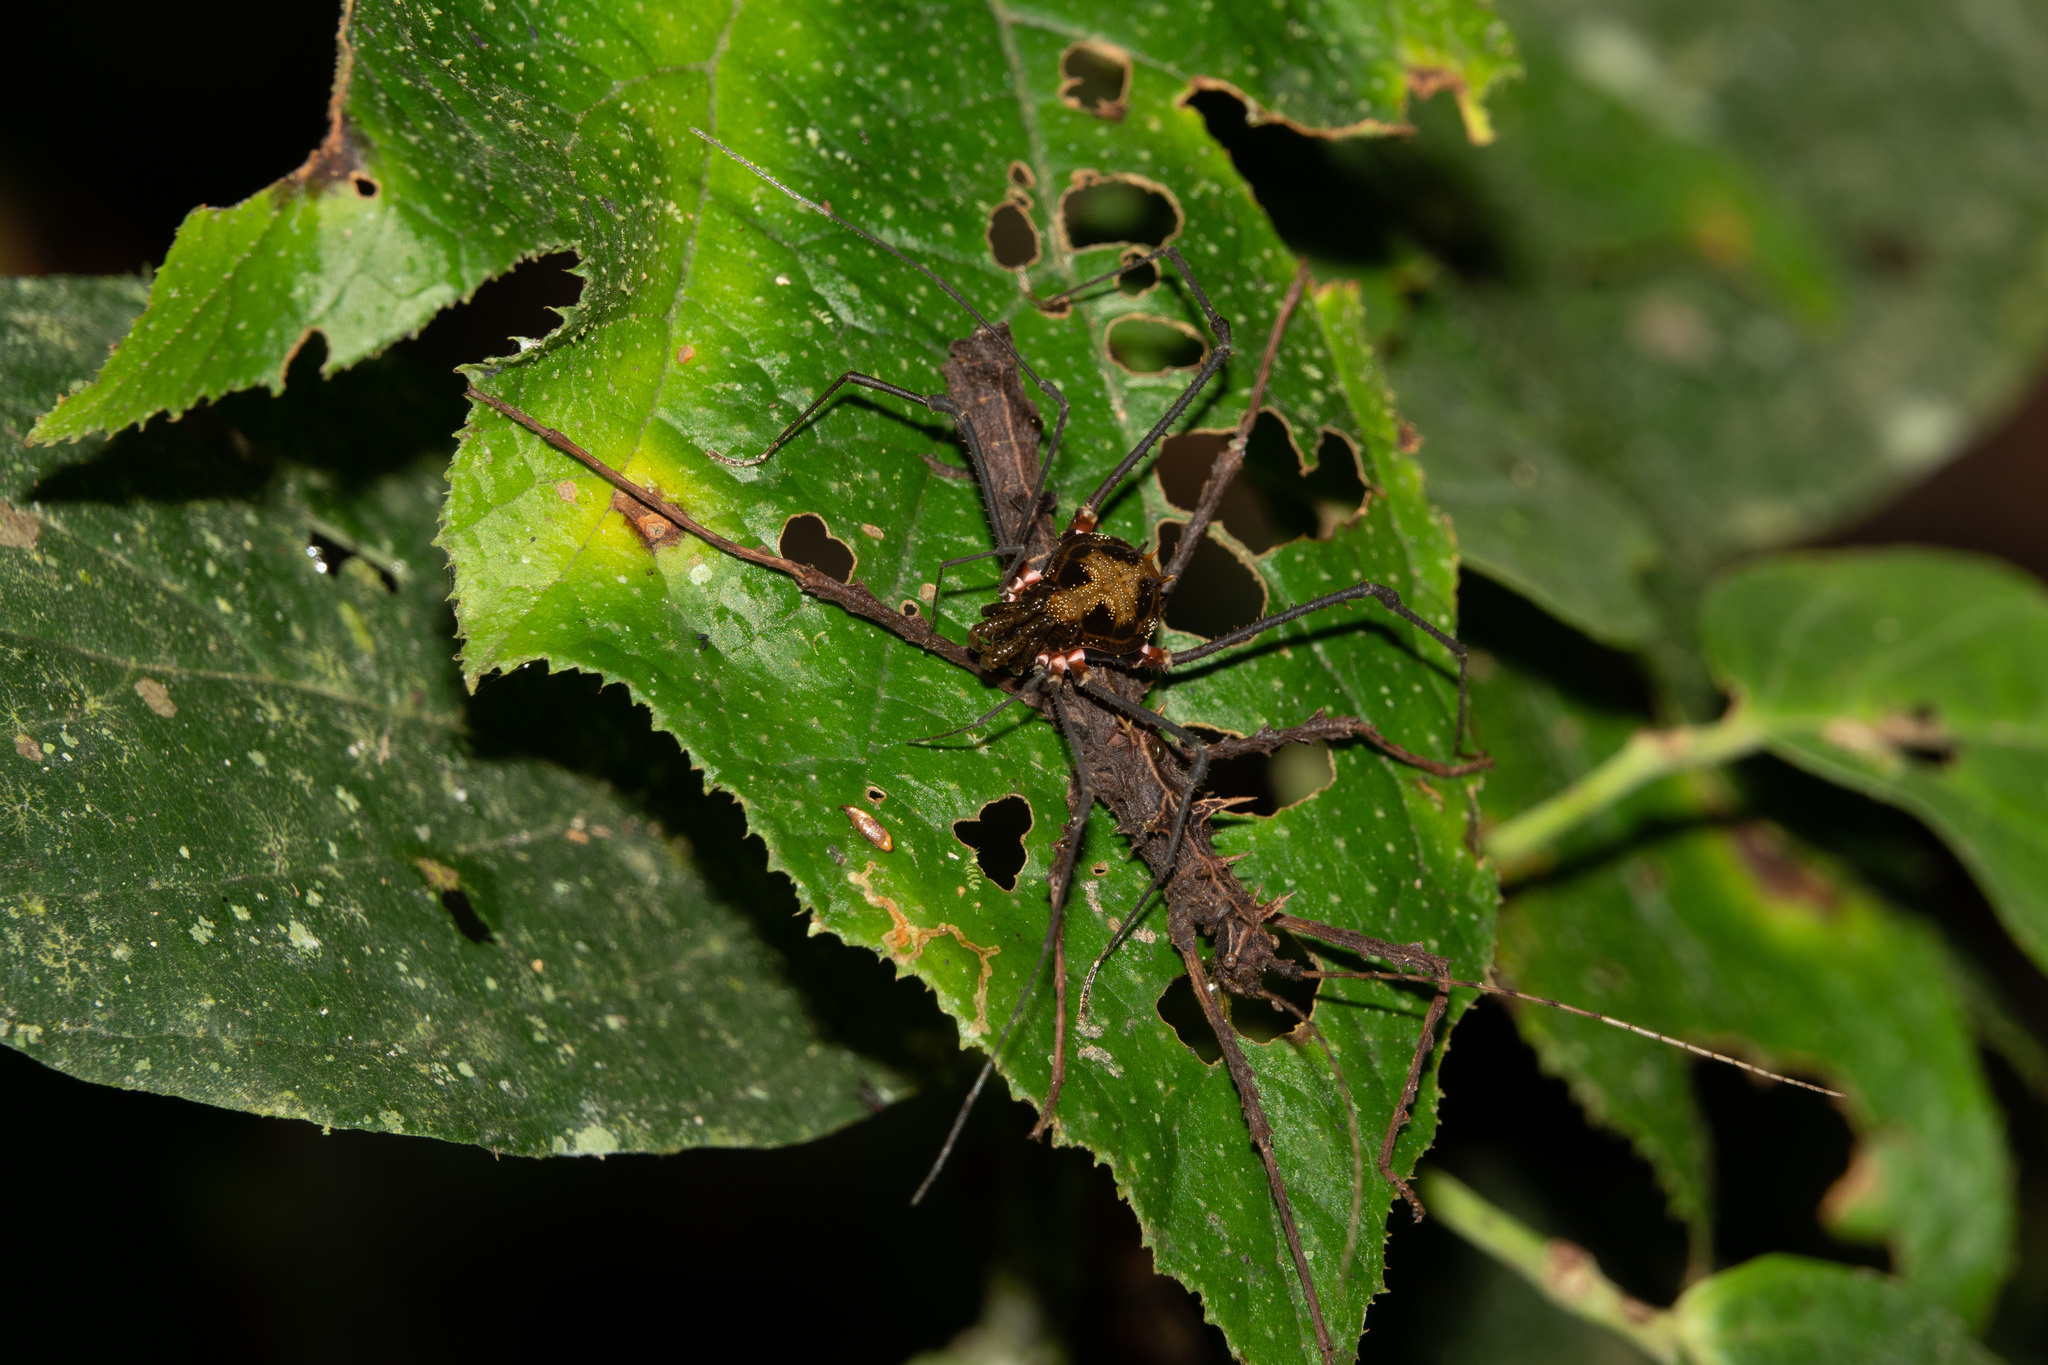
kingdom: Animalia
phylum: Arthropoda
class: Arachnida
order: Opiliones
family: Cranaidae
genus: Nieblia
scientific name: Nieblia arthrocentrica
